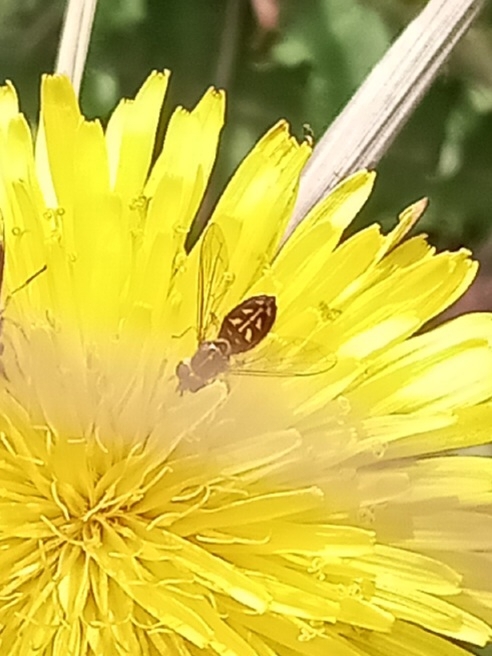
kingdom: Animalia
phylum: Arthropoda
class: Insecta
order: Diptera
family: Syrphidae
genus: Toxomerus
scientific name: Toxomerus marginatus
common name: Syrphid fly
